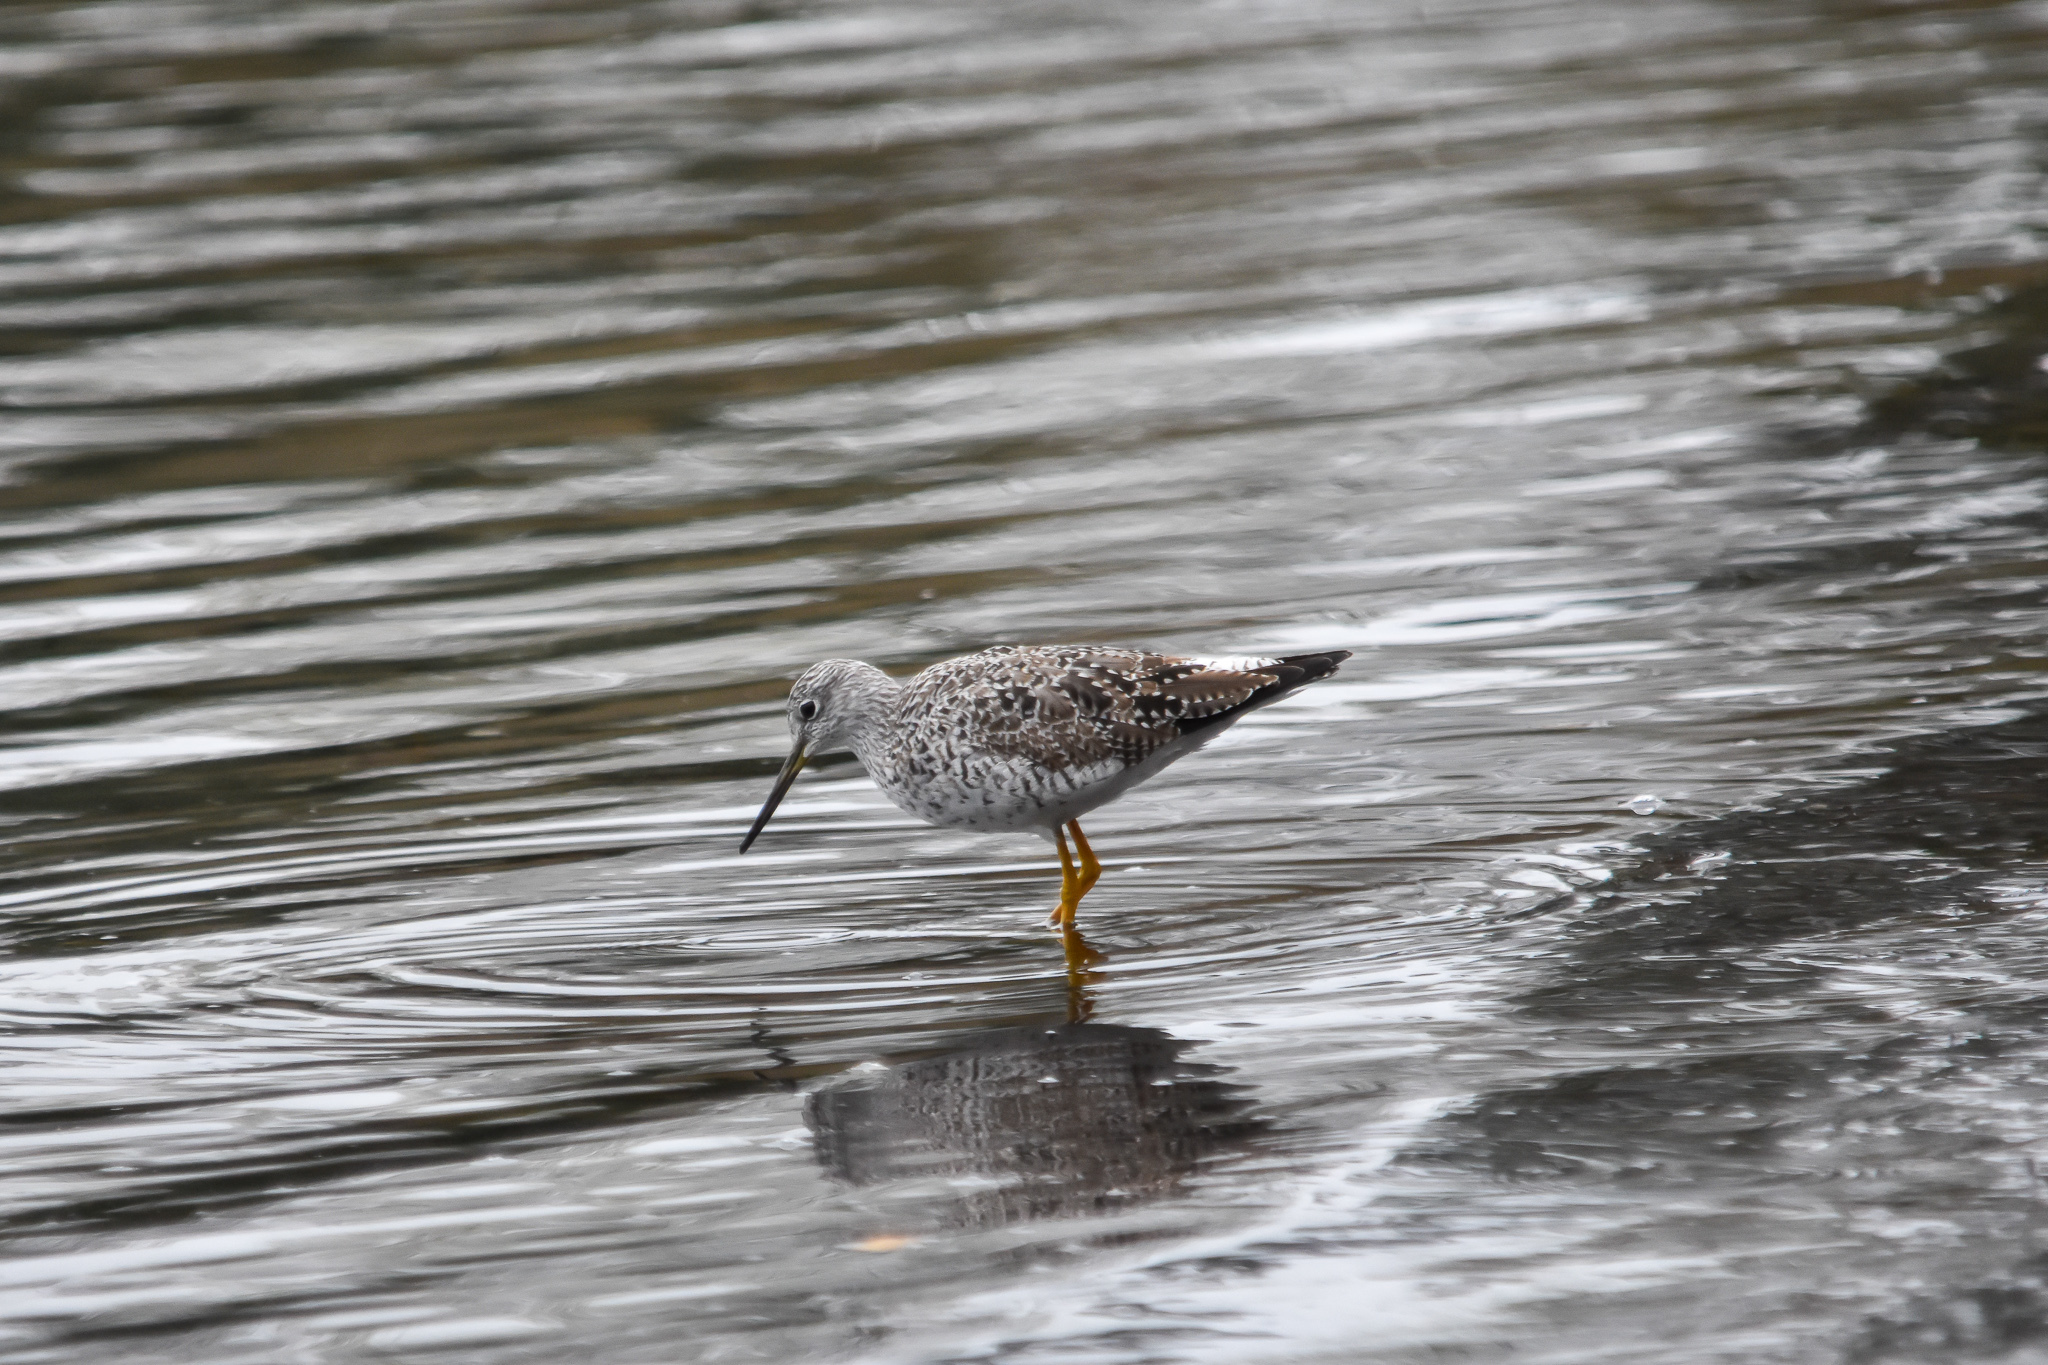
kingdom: Animalia
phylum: Chordata
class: Aves
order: Charadriiformes
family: Scolopacidae
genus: Tringa
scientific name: Tringa melanoleuca
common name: Greater yellowlegs
